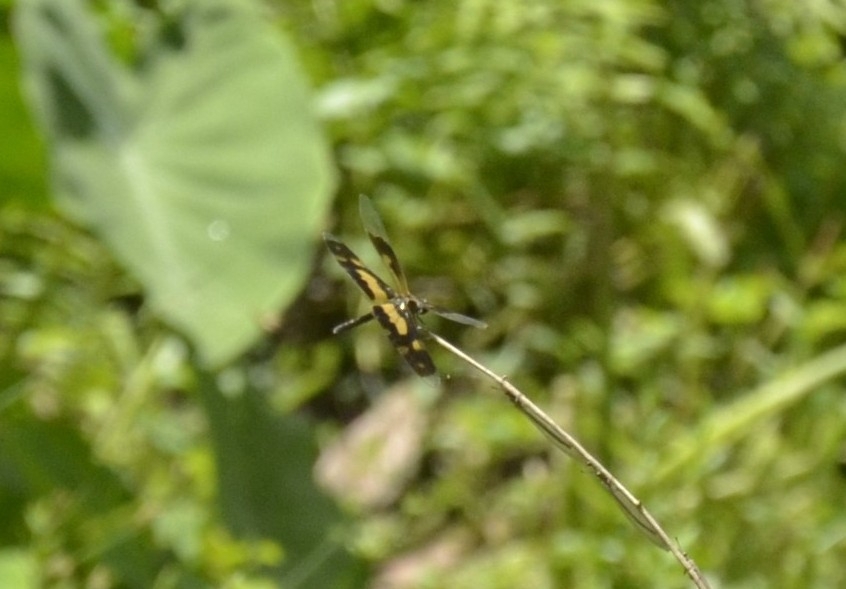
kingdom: Animalia
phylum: Arthropoda
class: Insecta
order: Odonata
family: Libellulidae
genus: Rhyothemis
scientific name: Rhyothemis variegata
